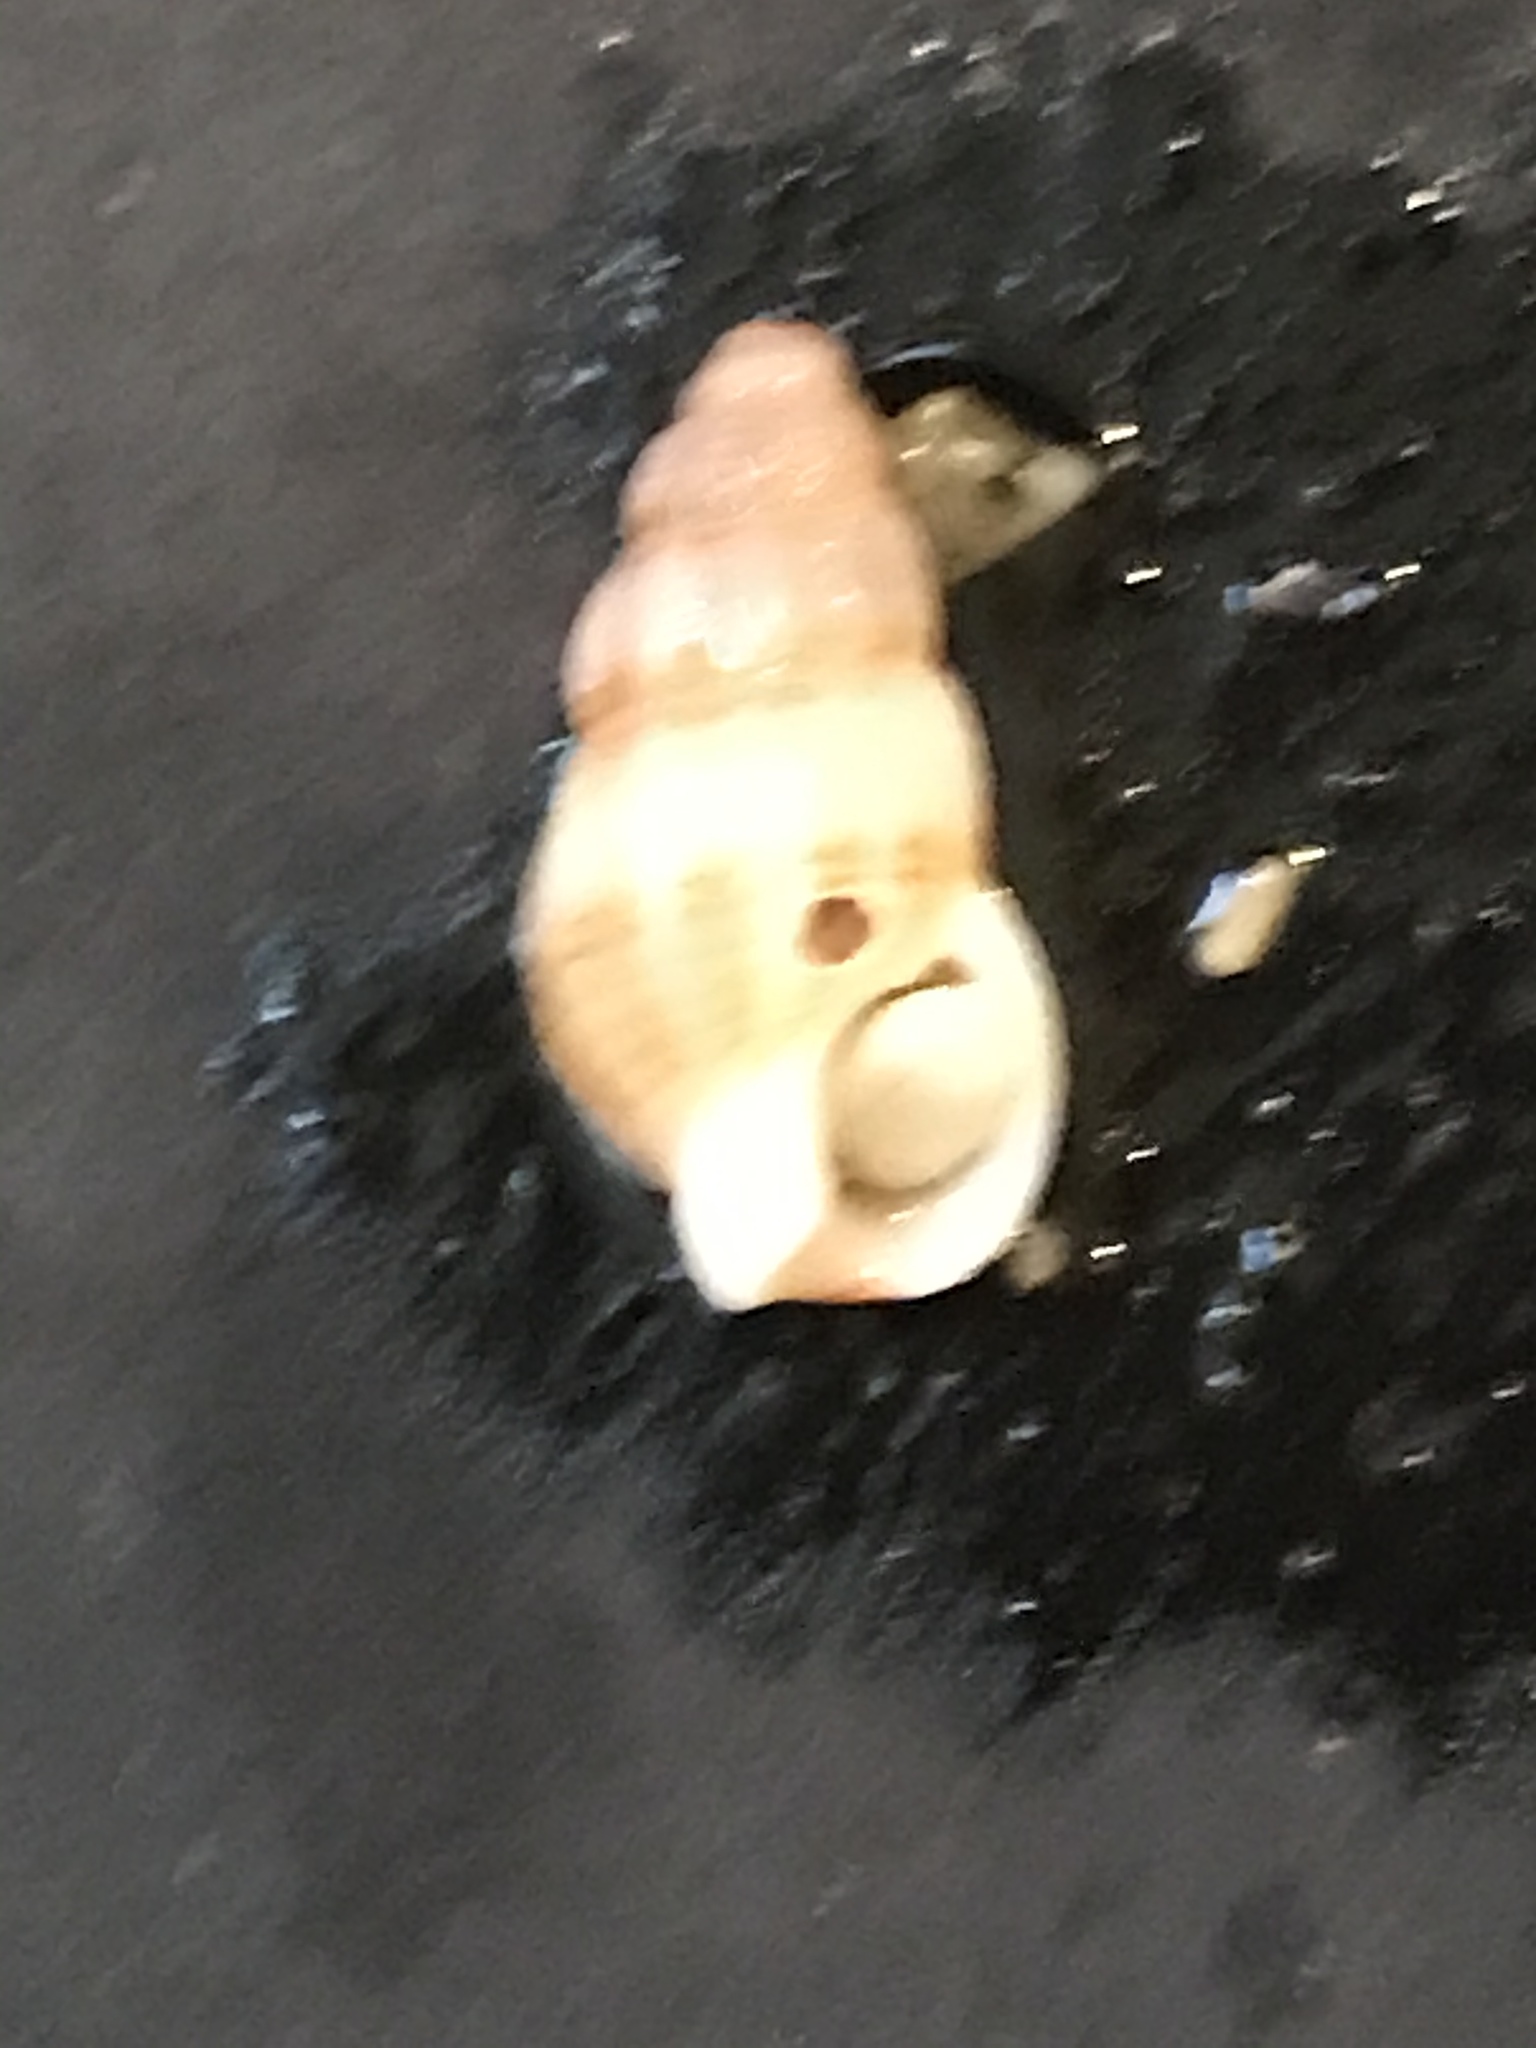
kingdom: Animalia
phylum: Mollusca
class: Gastropoda
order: Neogastropoda
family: Nassariidae
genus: Nassarius
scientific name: Nassarius mendicus
